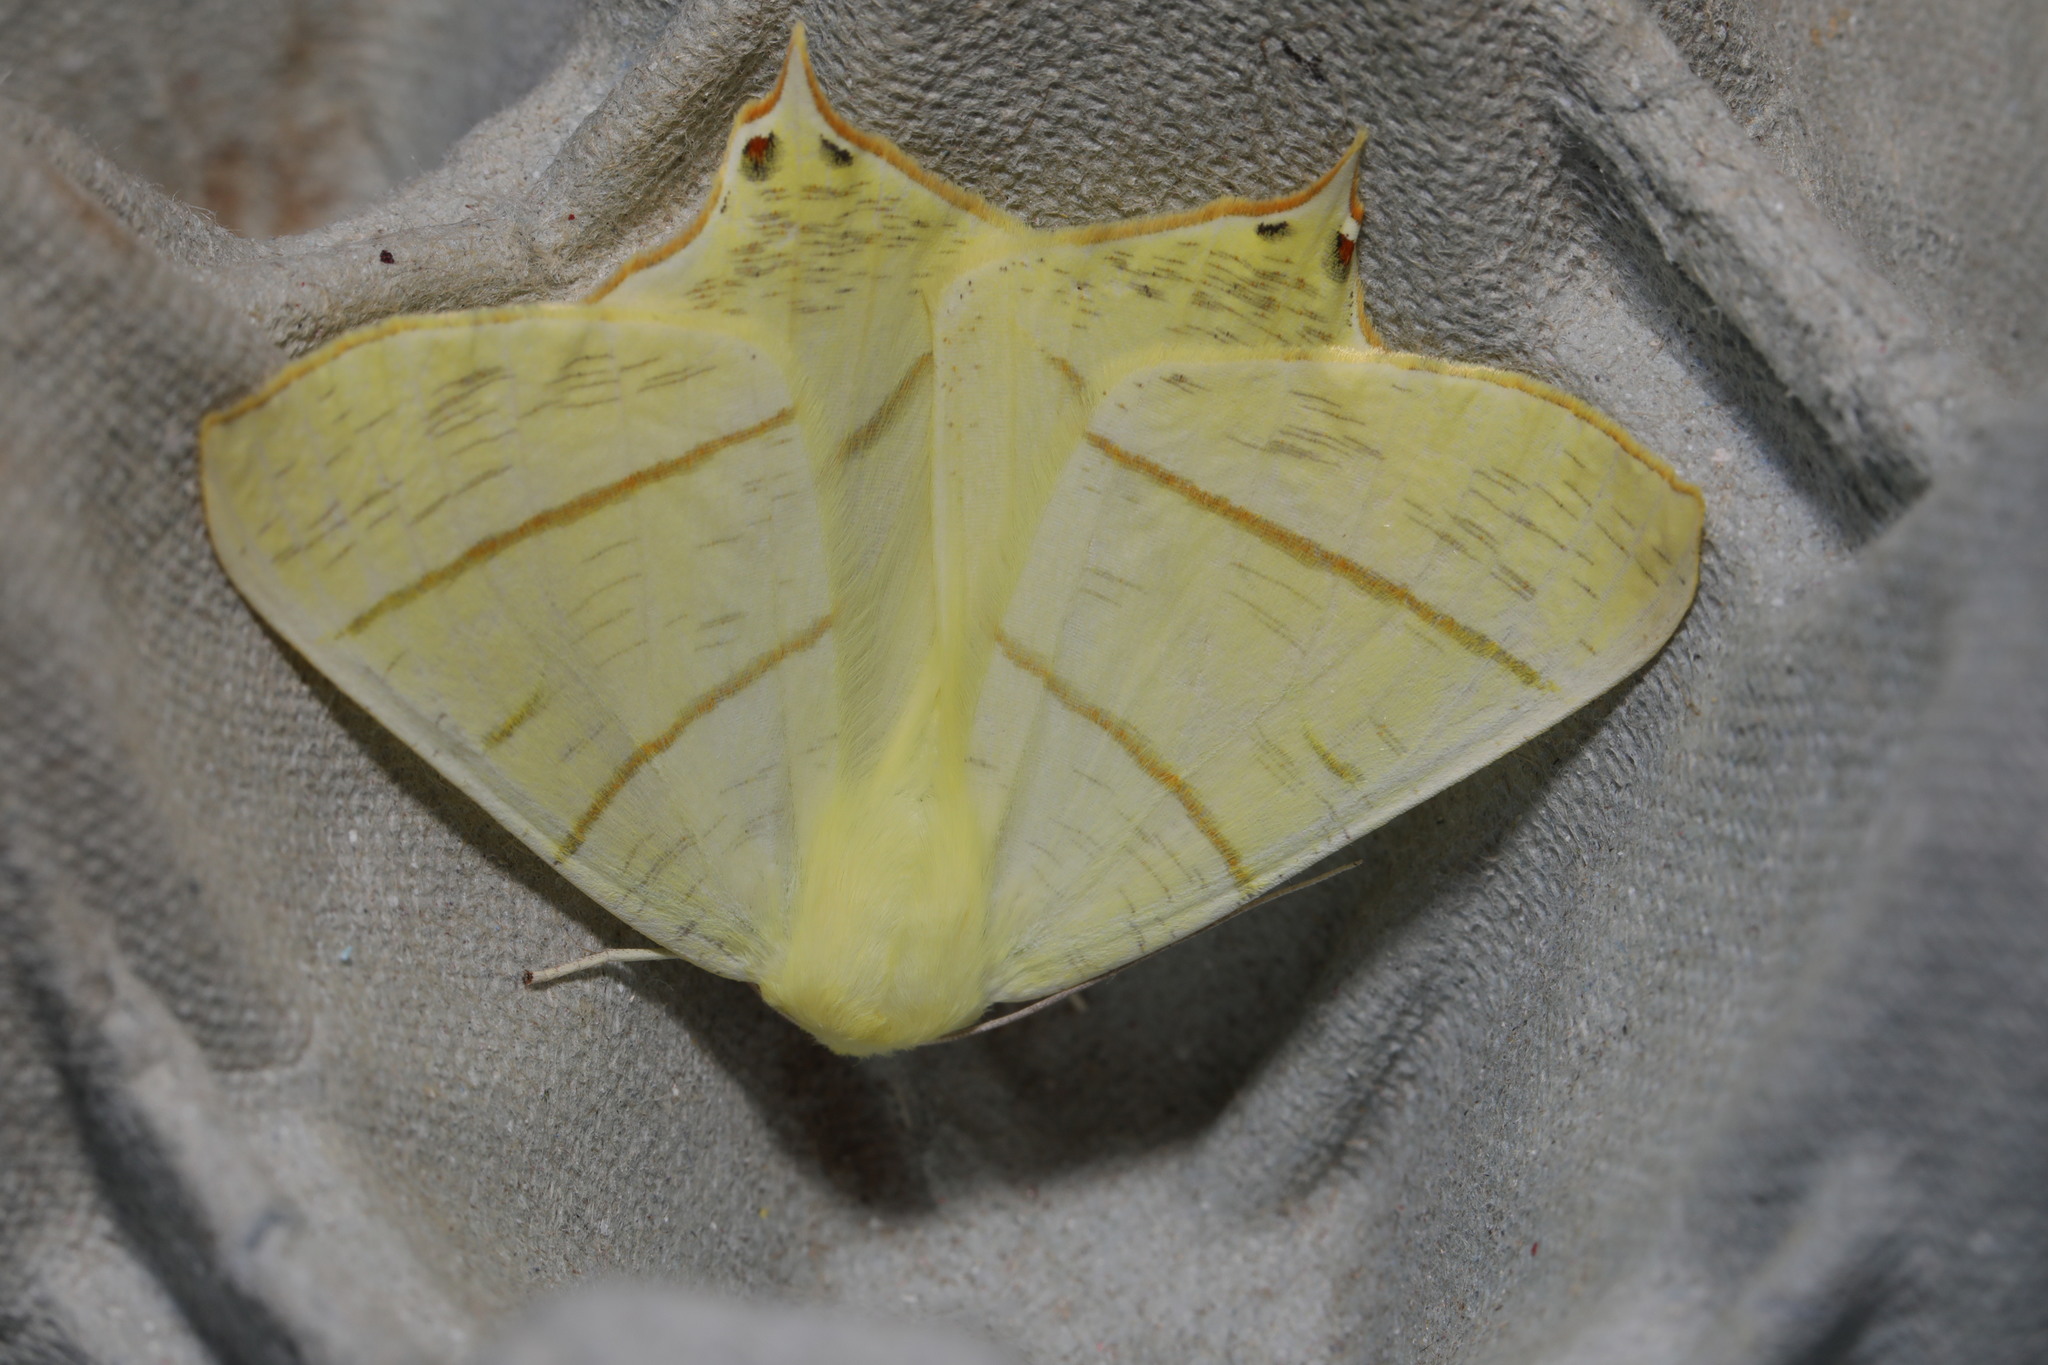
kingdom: Animalia
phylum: Arthropoda
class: Insecta
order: Lepidoptera
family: Geometridae
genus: Ourapteryx
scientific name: Ourapteryx sambucaria
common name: Swallow-tailed moth
